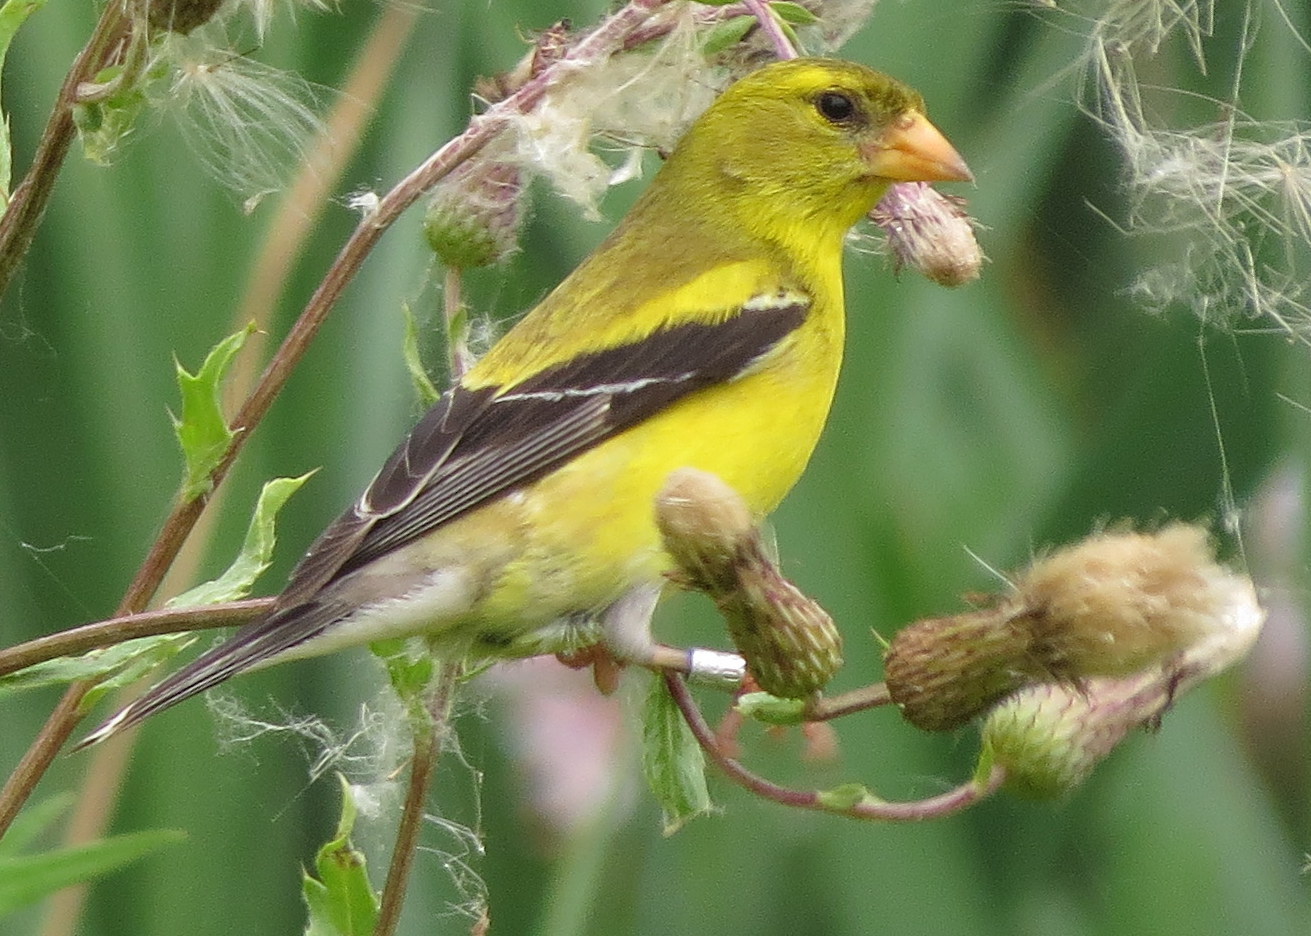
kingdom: Animalia
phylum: Chordata
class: Aves
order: Passeriformes
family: Fringillidae
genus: Spinus
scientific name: Spinus tristis
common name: American goldfinch
